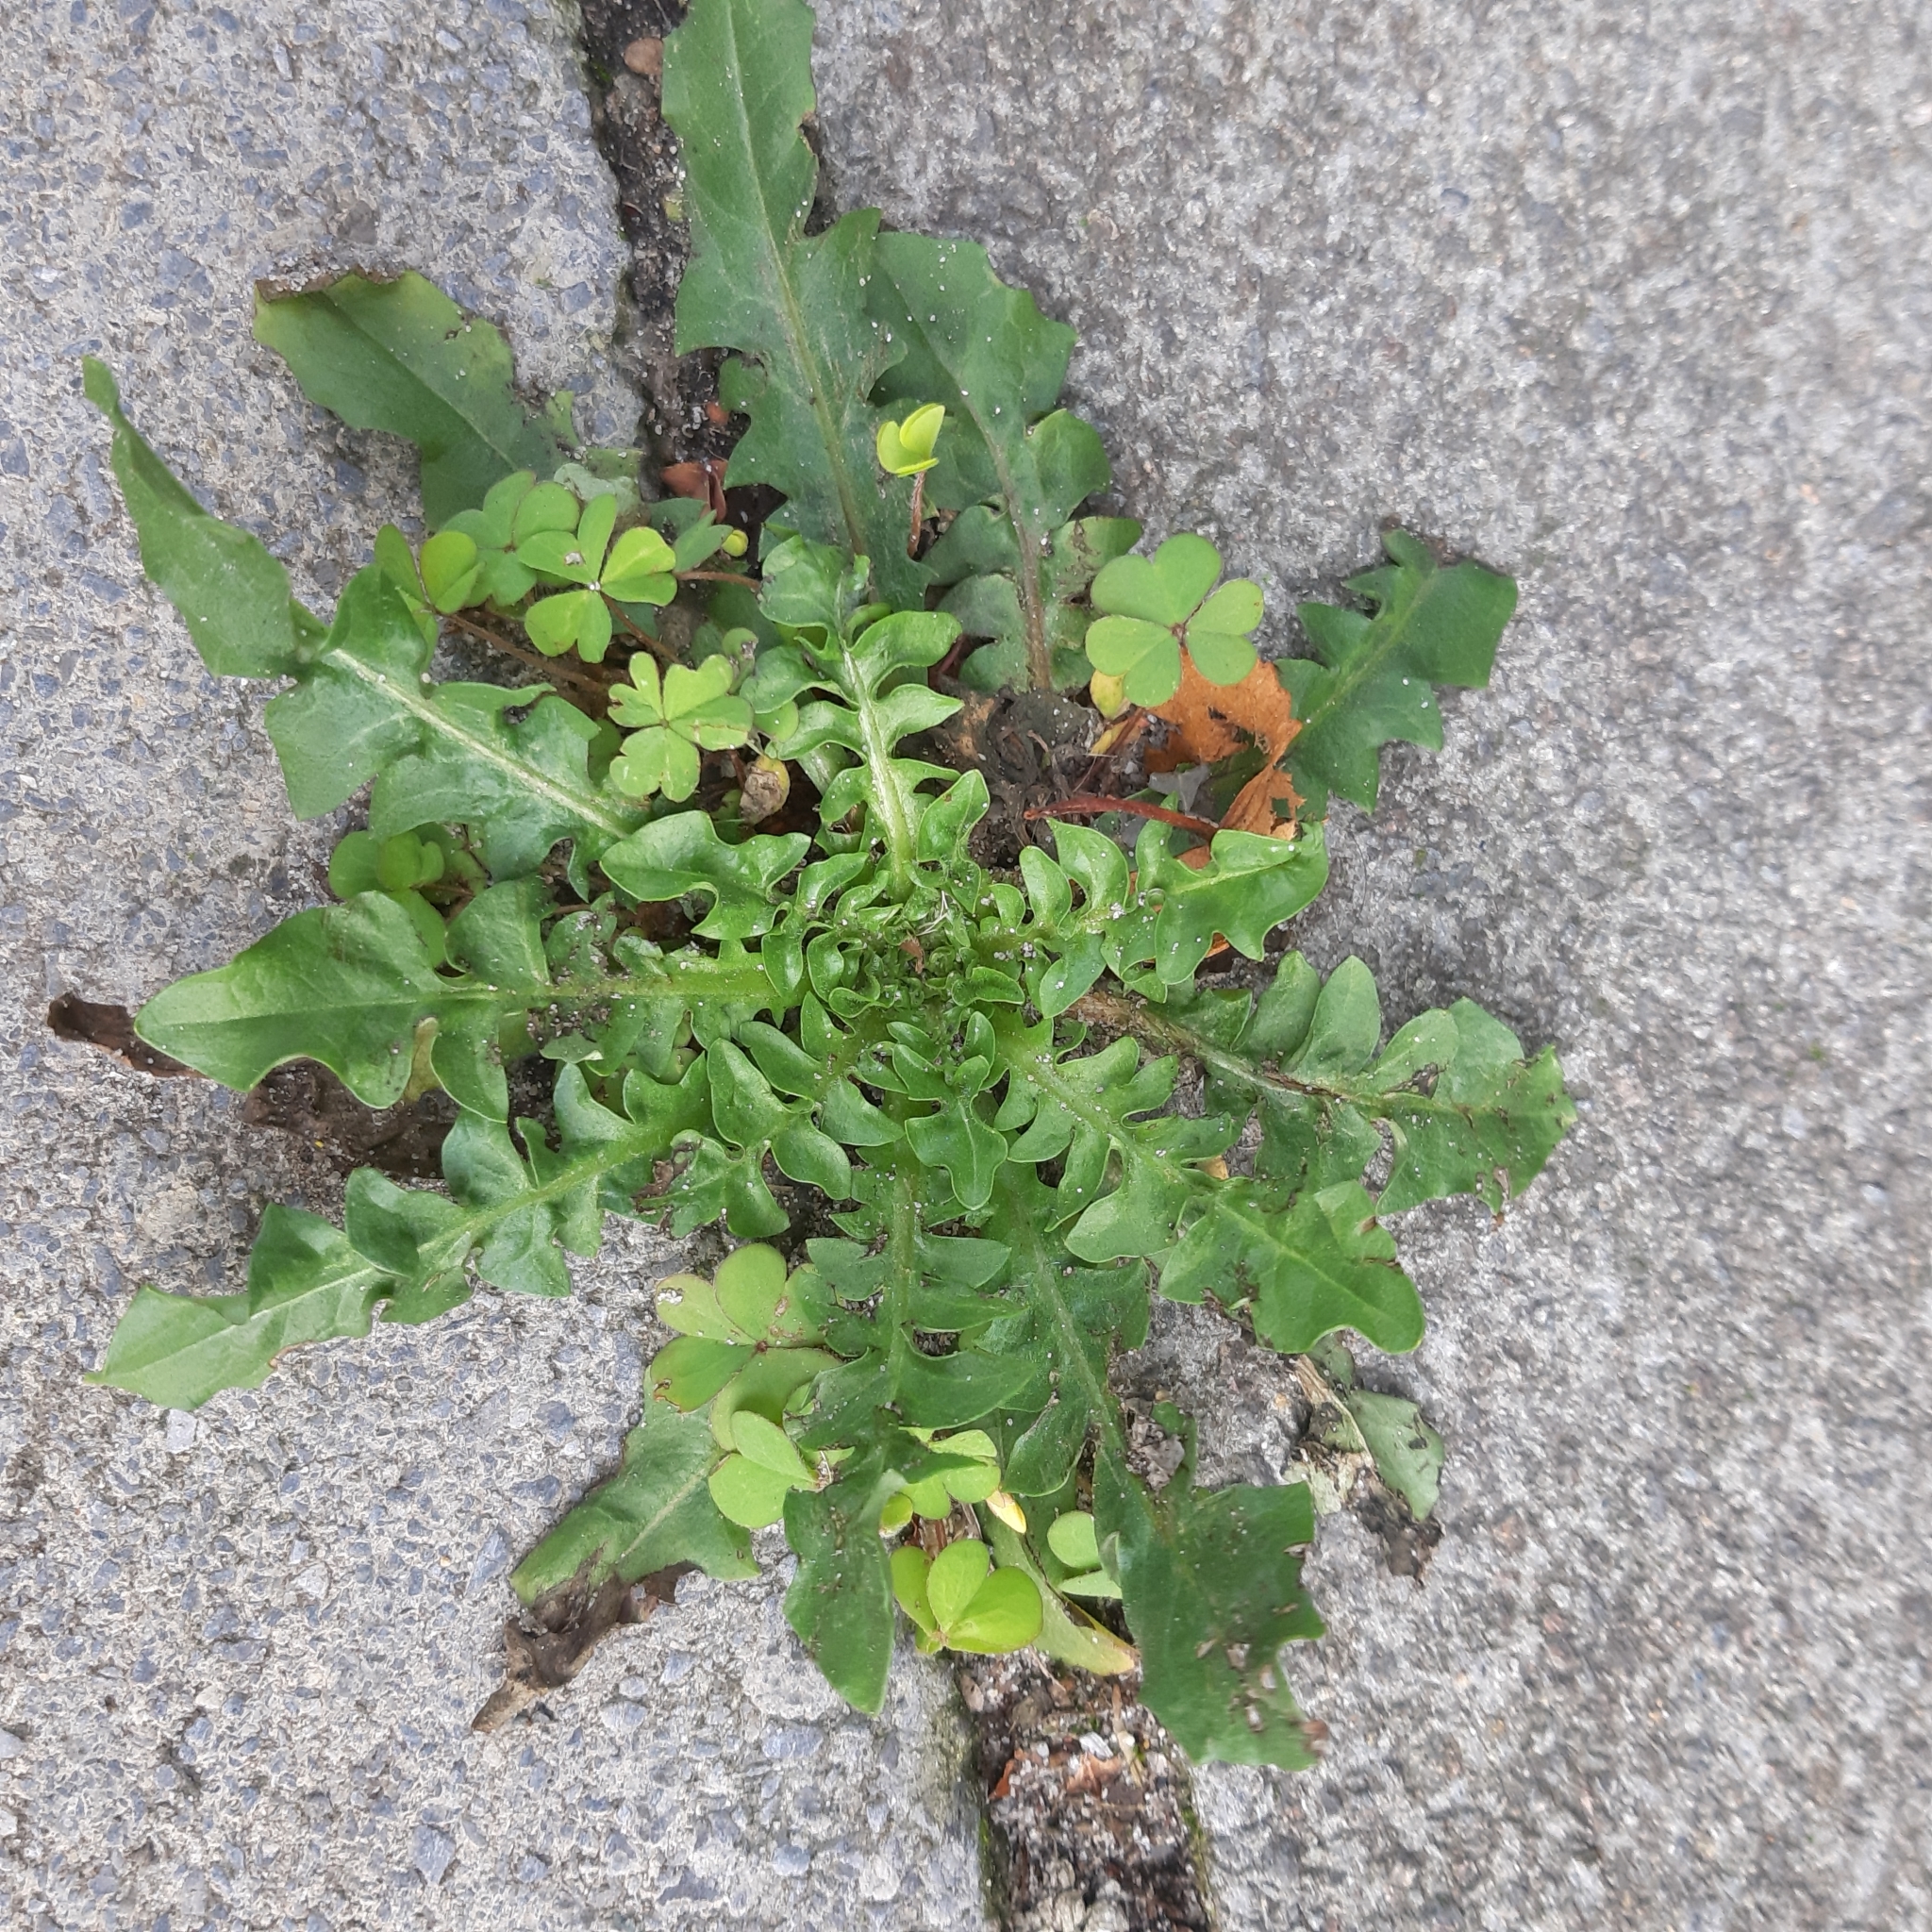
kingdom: Plantae
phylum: Tracheophyta
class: Magnoliopsida
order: Brassicales
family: Brassicaceae
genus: Capsella
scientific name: Capsella bursa-pastoris
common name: Shepherd's purse
